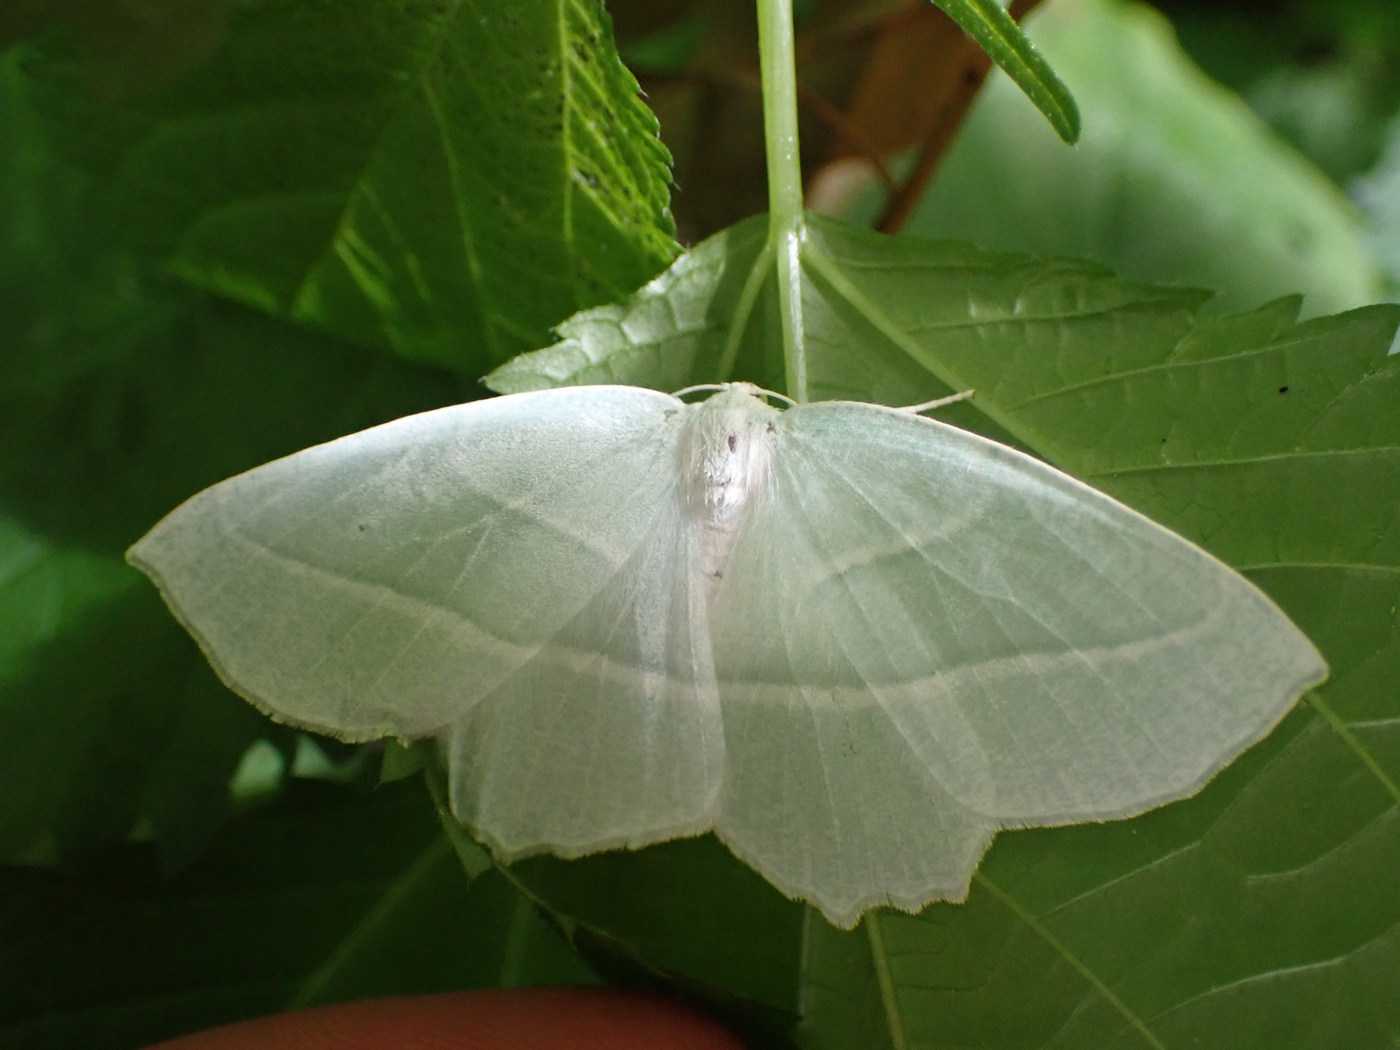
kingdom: Animalia
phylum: Arthropoda
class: Insecta
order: Lepidoptera
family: Geometridae
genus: Campaea
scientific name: Campaea perlata
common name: Fringed looper
